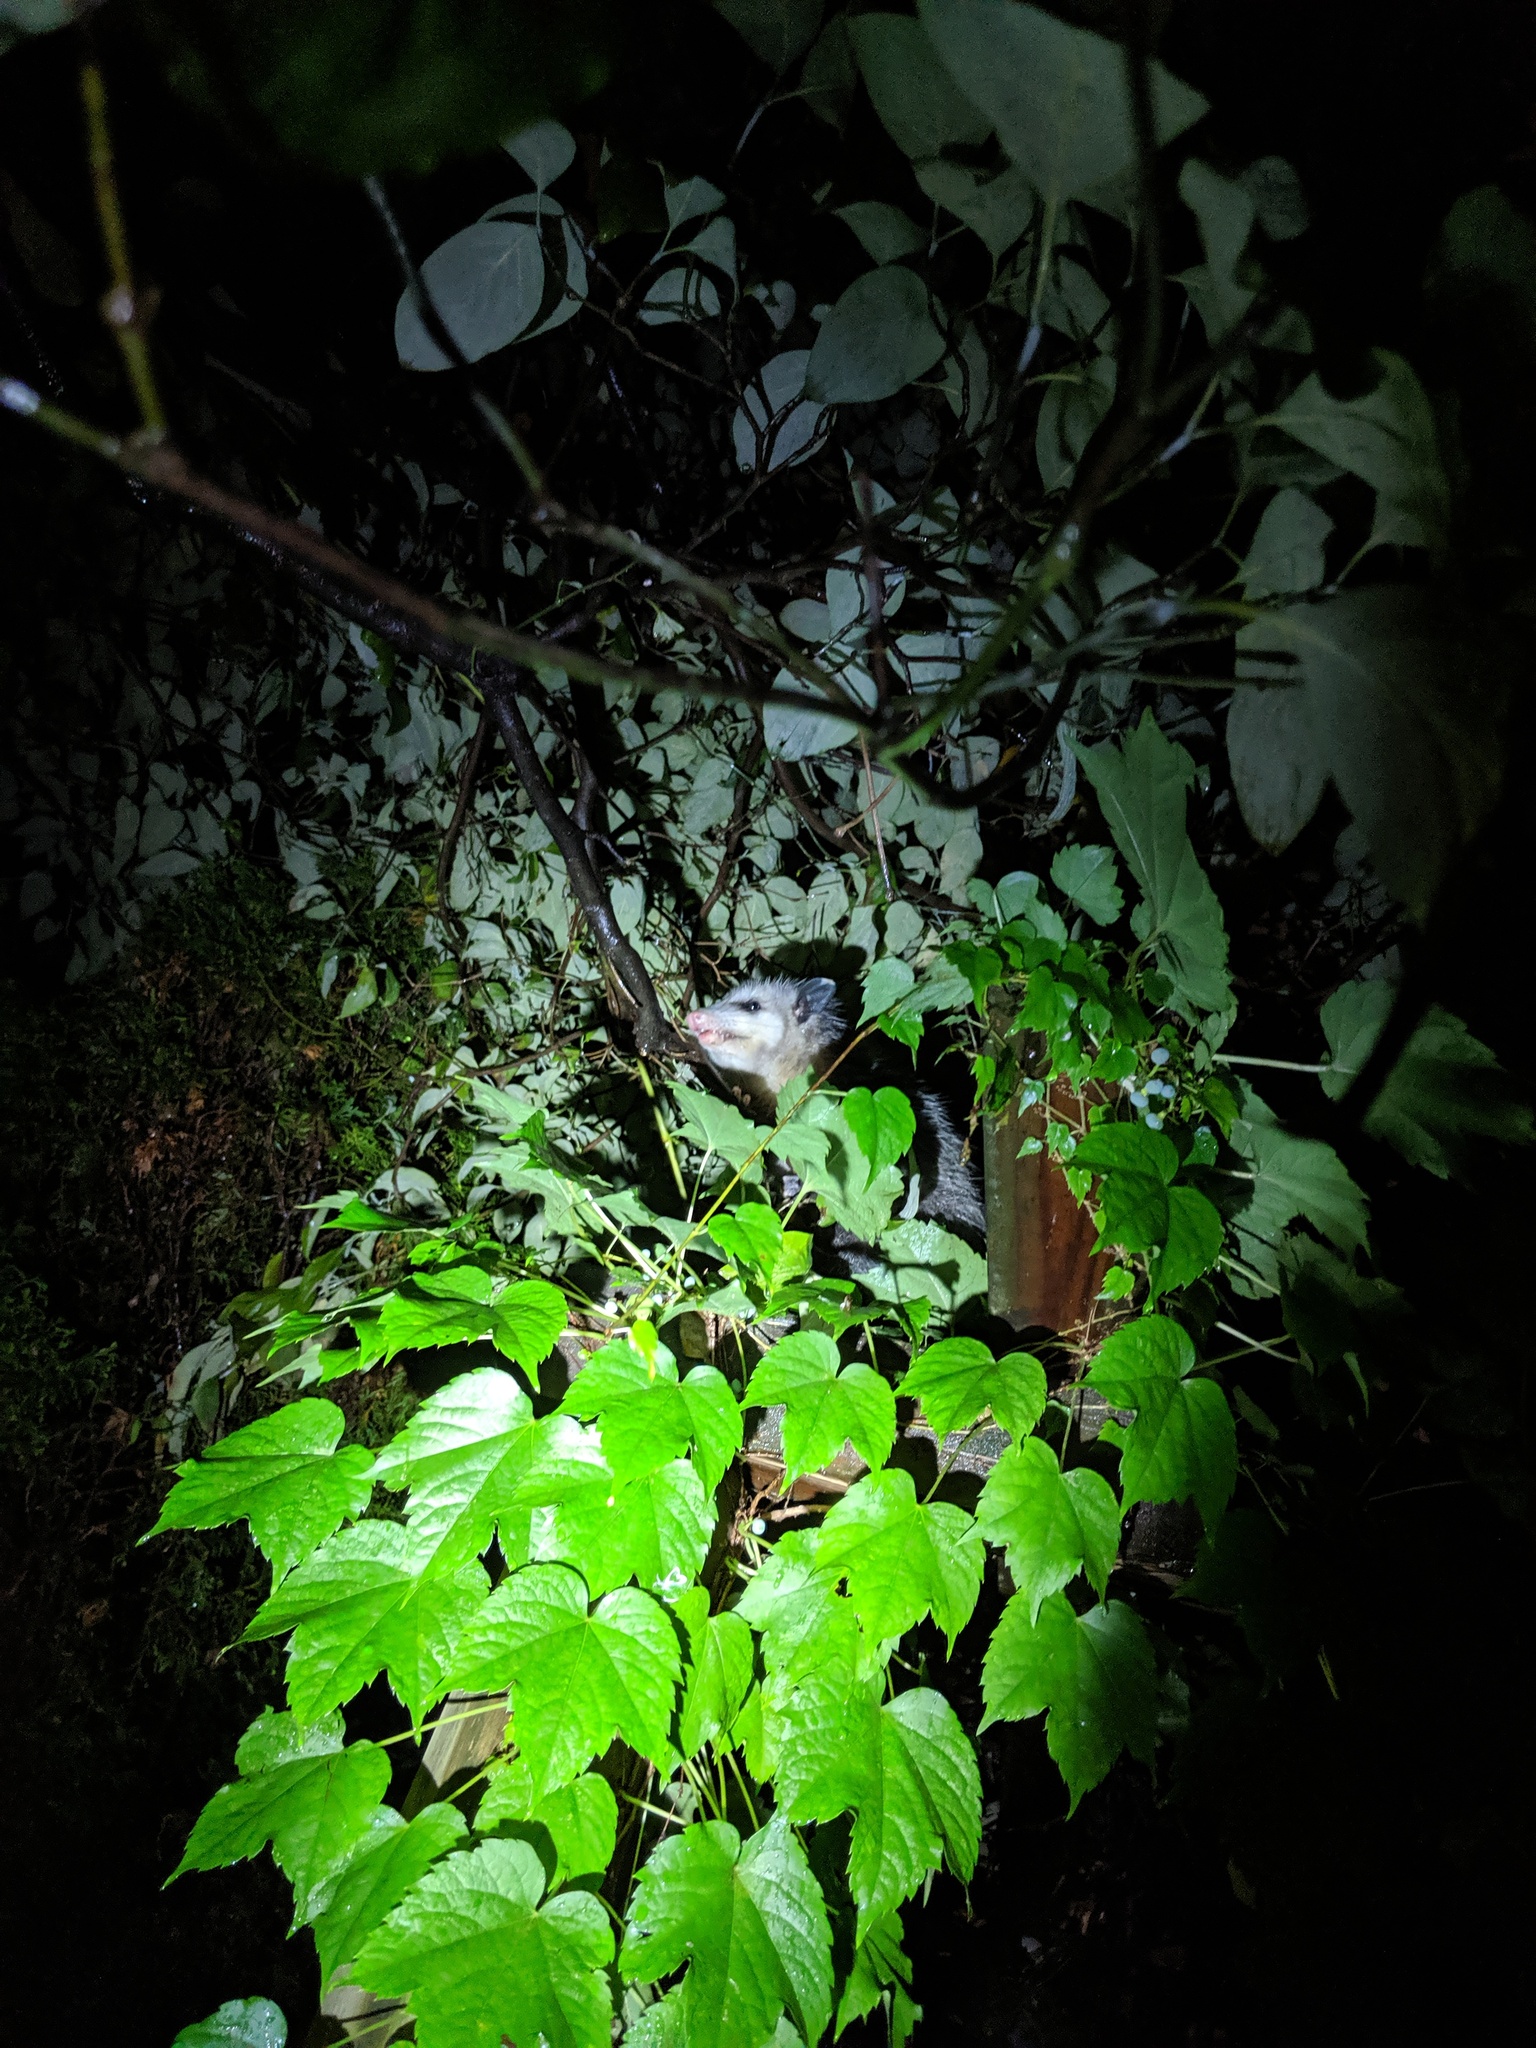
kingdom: Animalia
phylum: Chordata
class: Mammalia
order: Didelphimorphia
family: Didelphidae
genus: Didelphis
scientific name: Didelphis virginiana
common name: Virginia opossum
